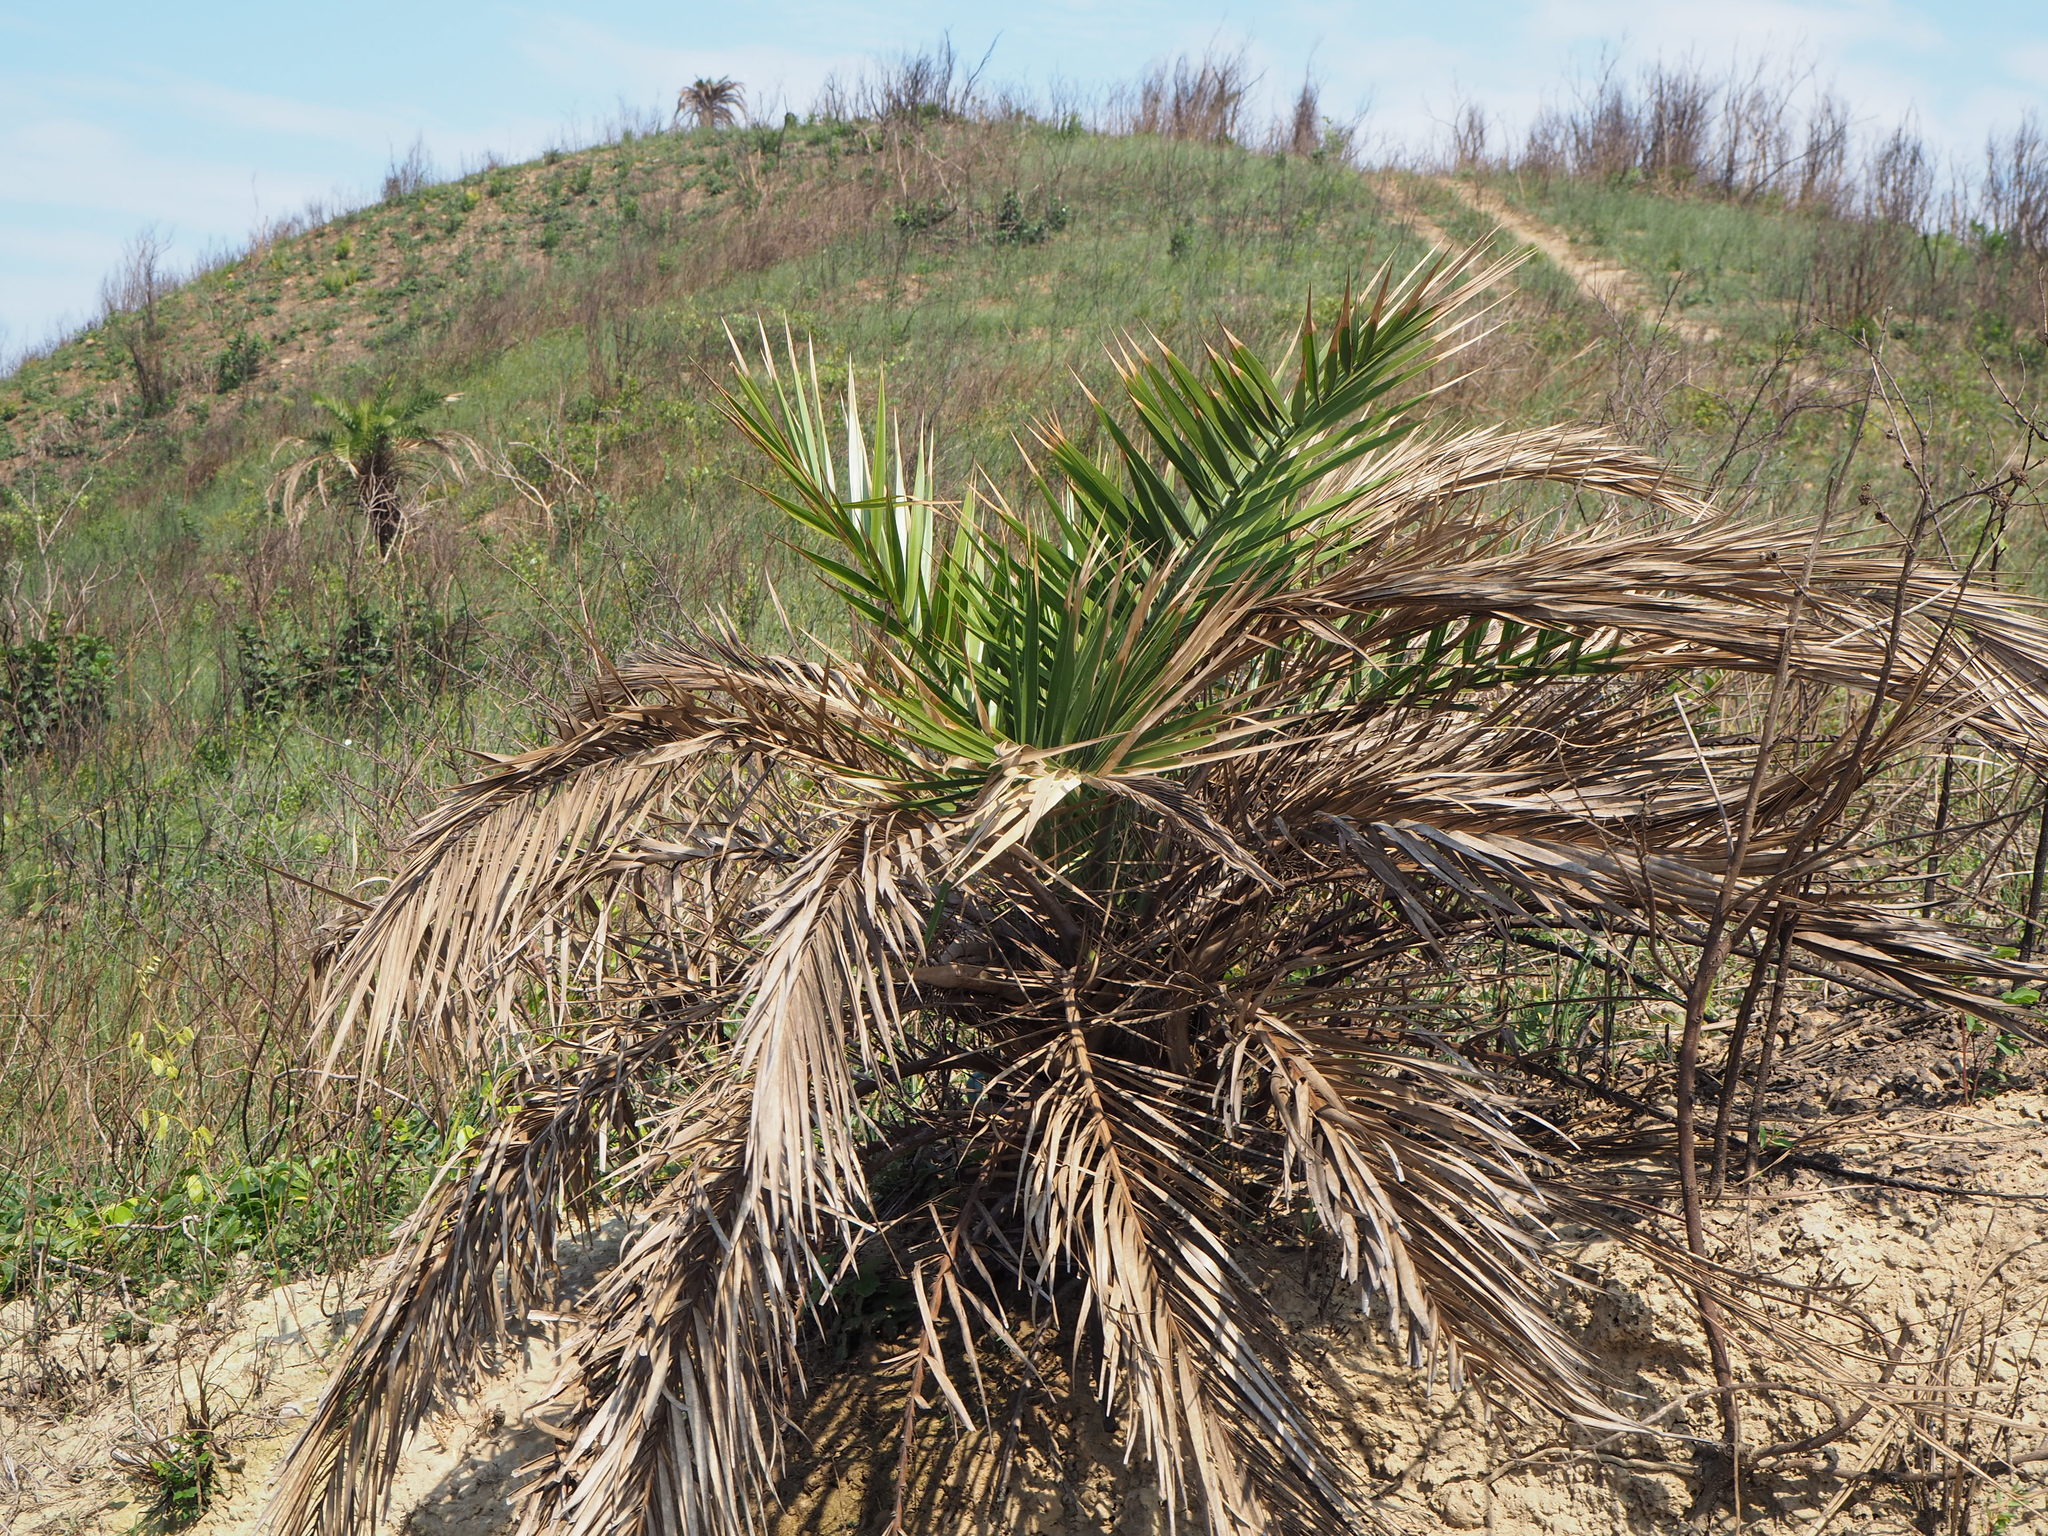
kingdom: Plantae
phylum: Tracheophyta
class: Liliopsida
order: Arecales
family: Arecaceae
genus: Phoenix
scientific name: Phoenix loureiroi
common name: Loureiro's palm
